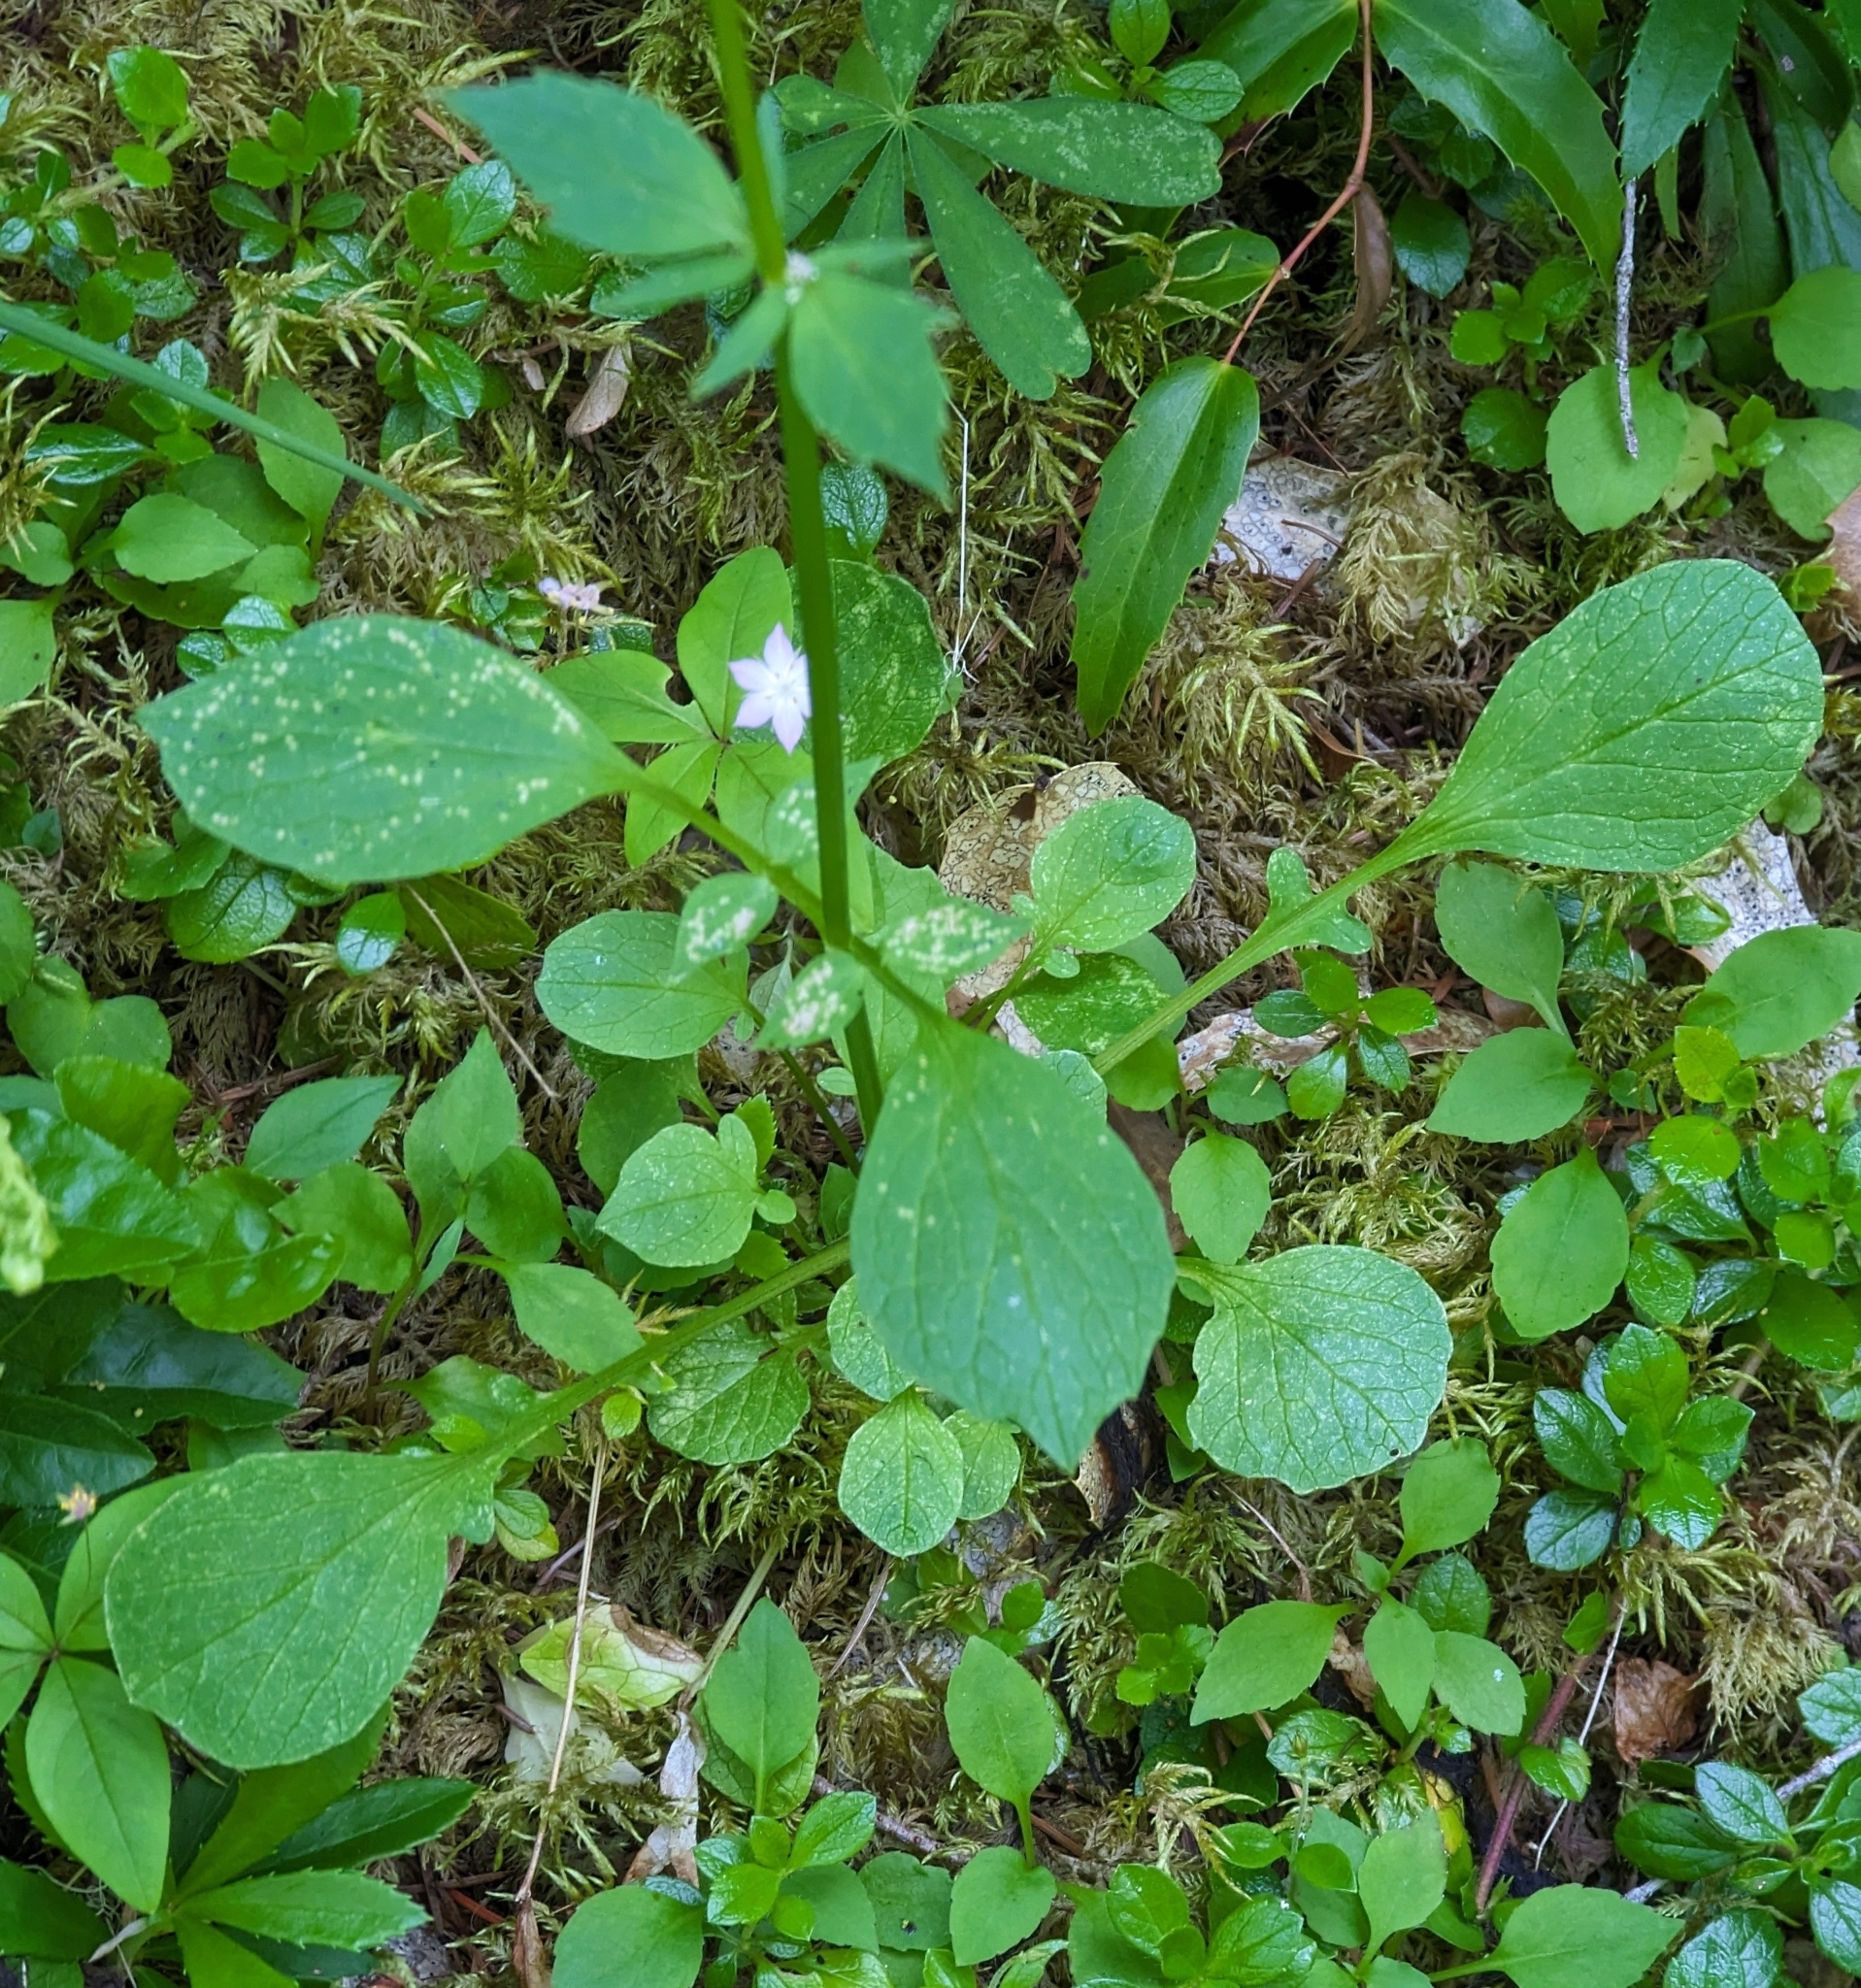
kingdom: Plantae
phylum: Tracheophyta
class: Magnoliopsida
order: Dipsacales
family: Caprifoliaceae
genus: Valeriana
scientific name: Valeriana scouleri
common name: Scouler's valerian
